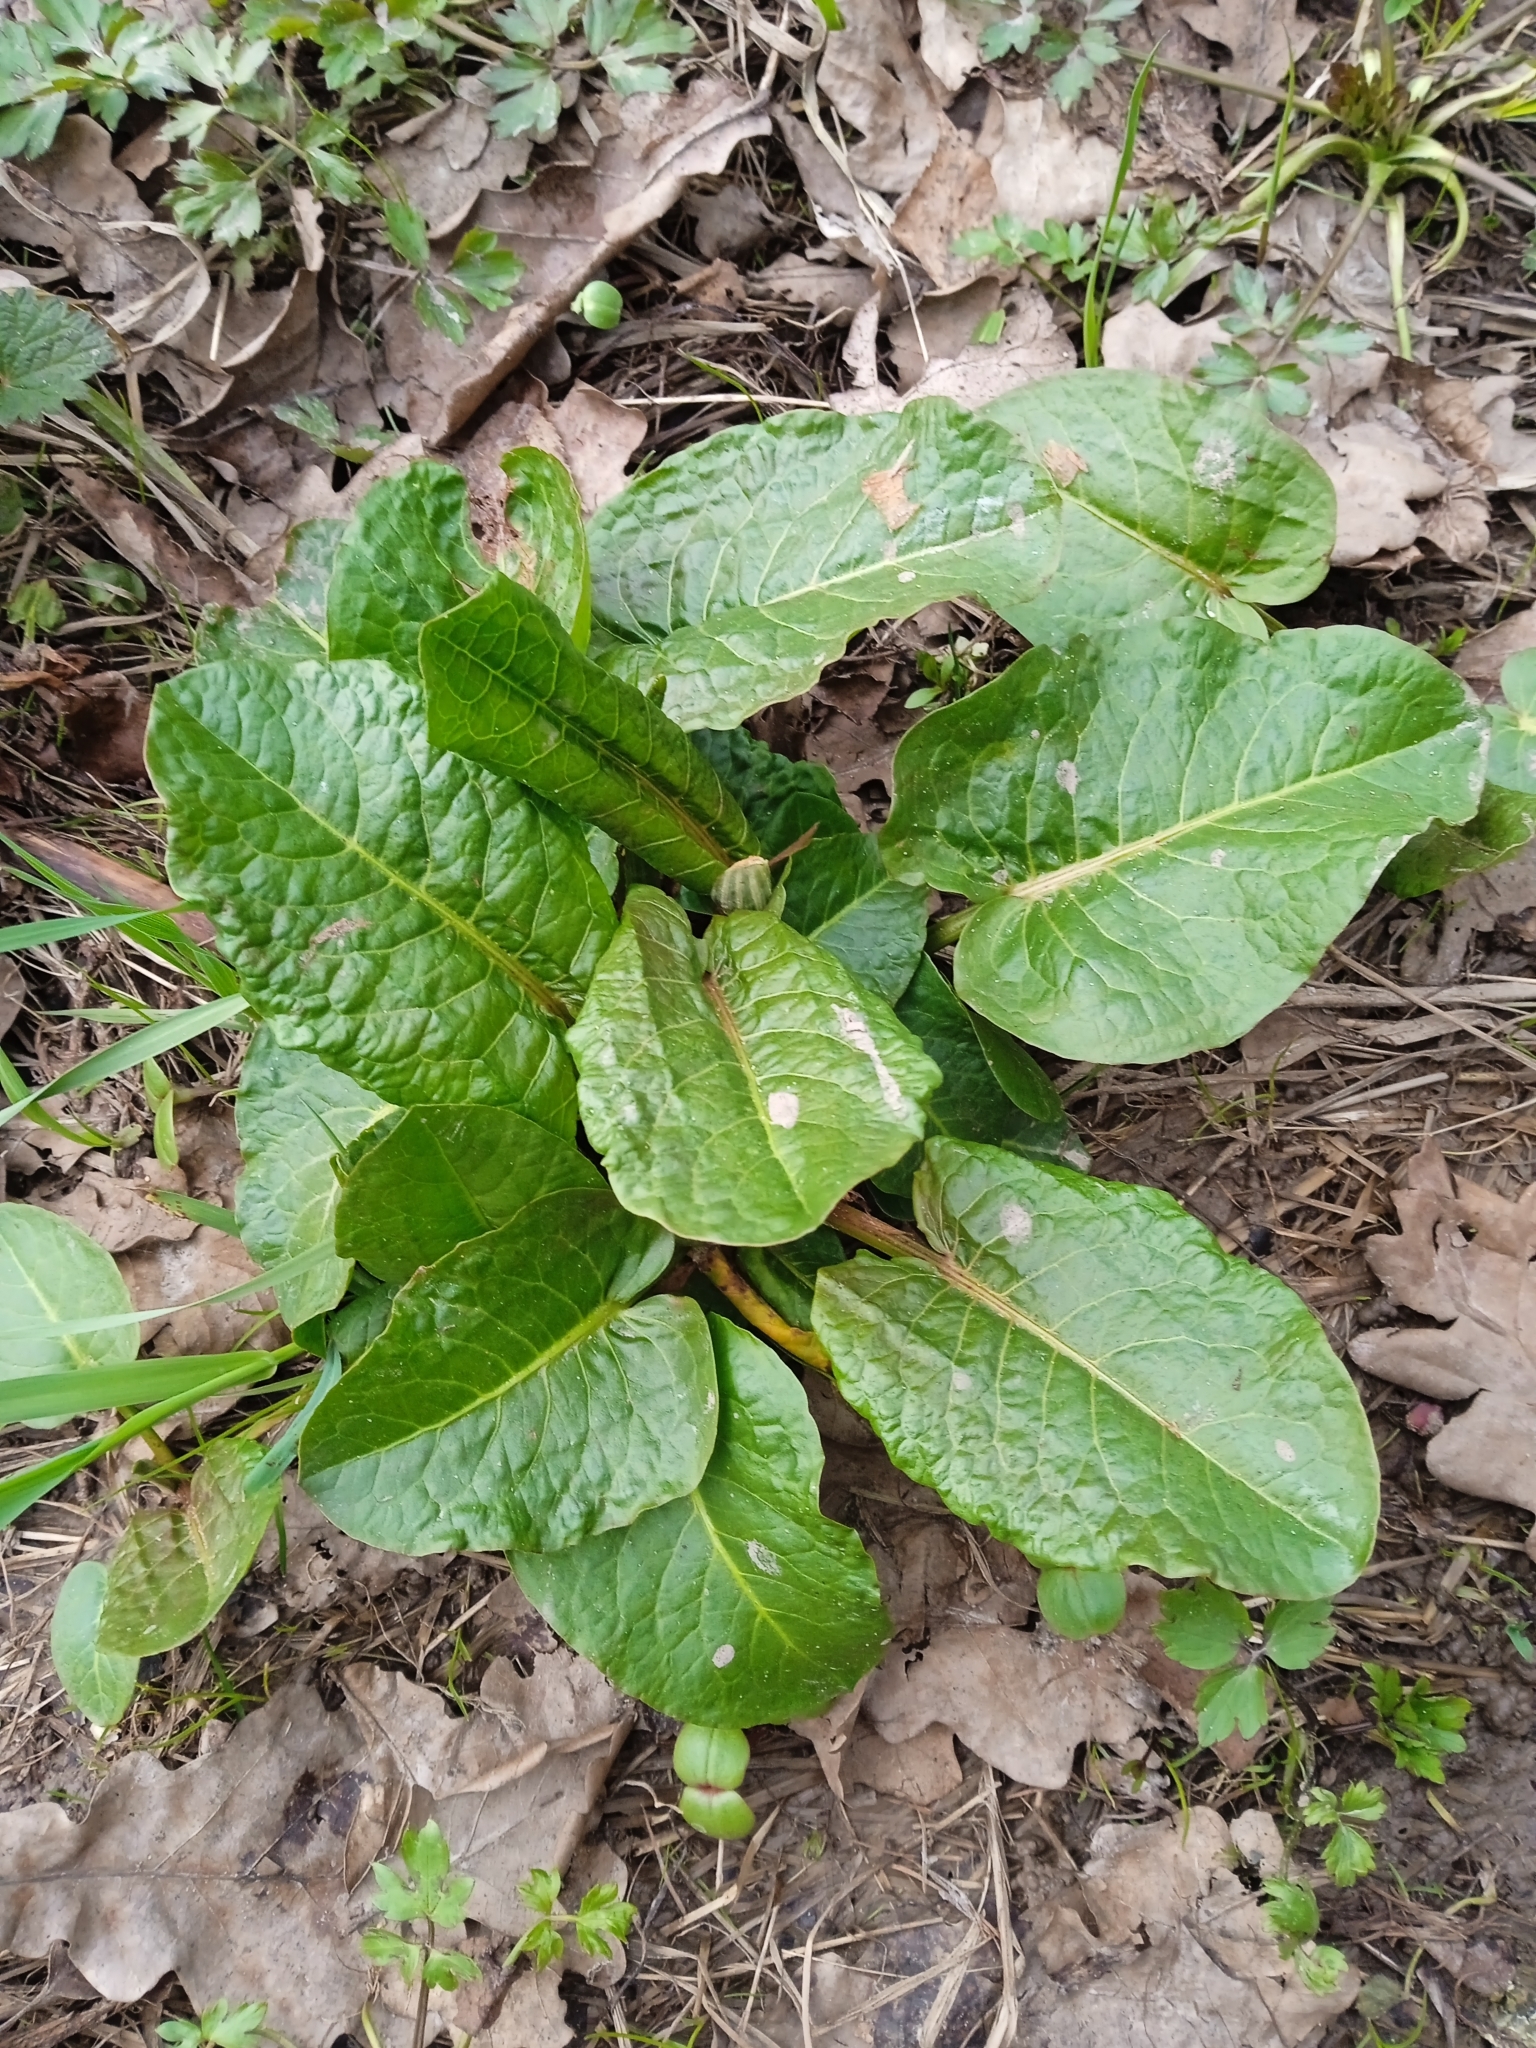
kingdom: Plantae
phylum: Tracheophyta
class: Magnoliopsida
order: Caryophyllales
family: Polygonaceae
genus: Rumex
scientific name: Rumex obtusifolius
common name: Bitter dock
